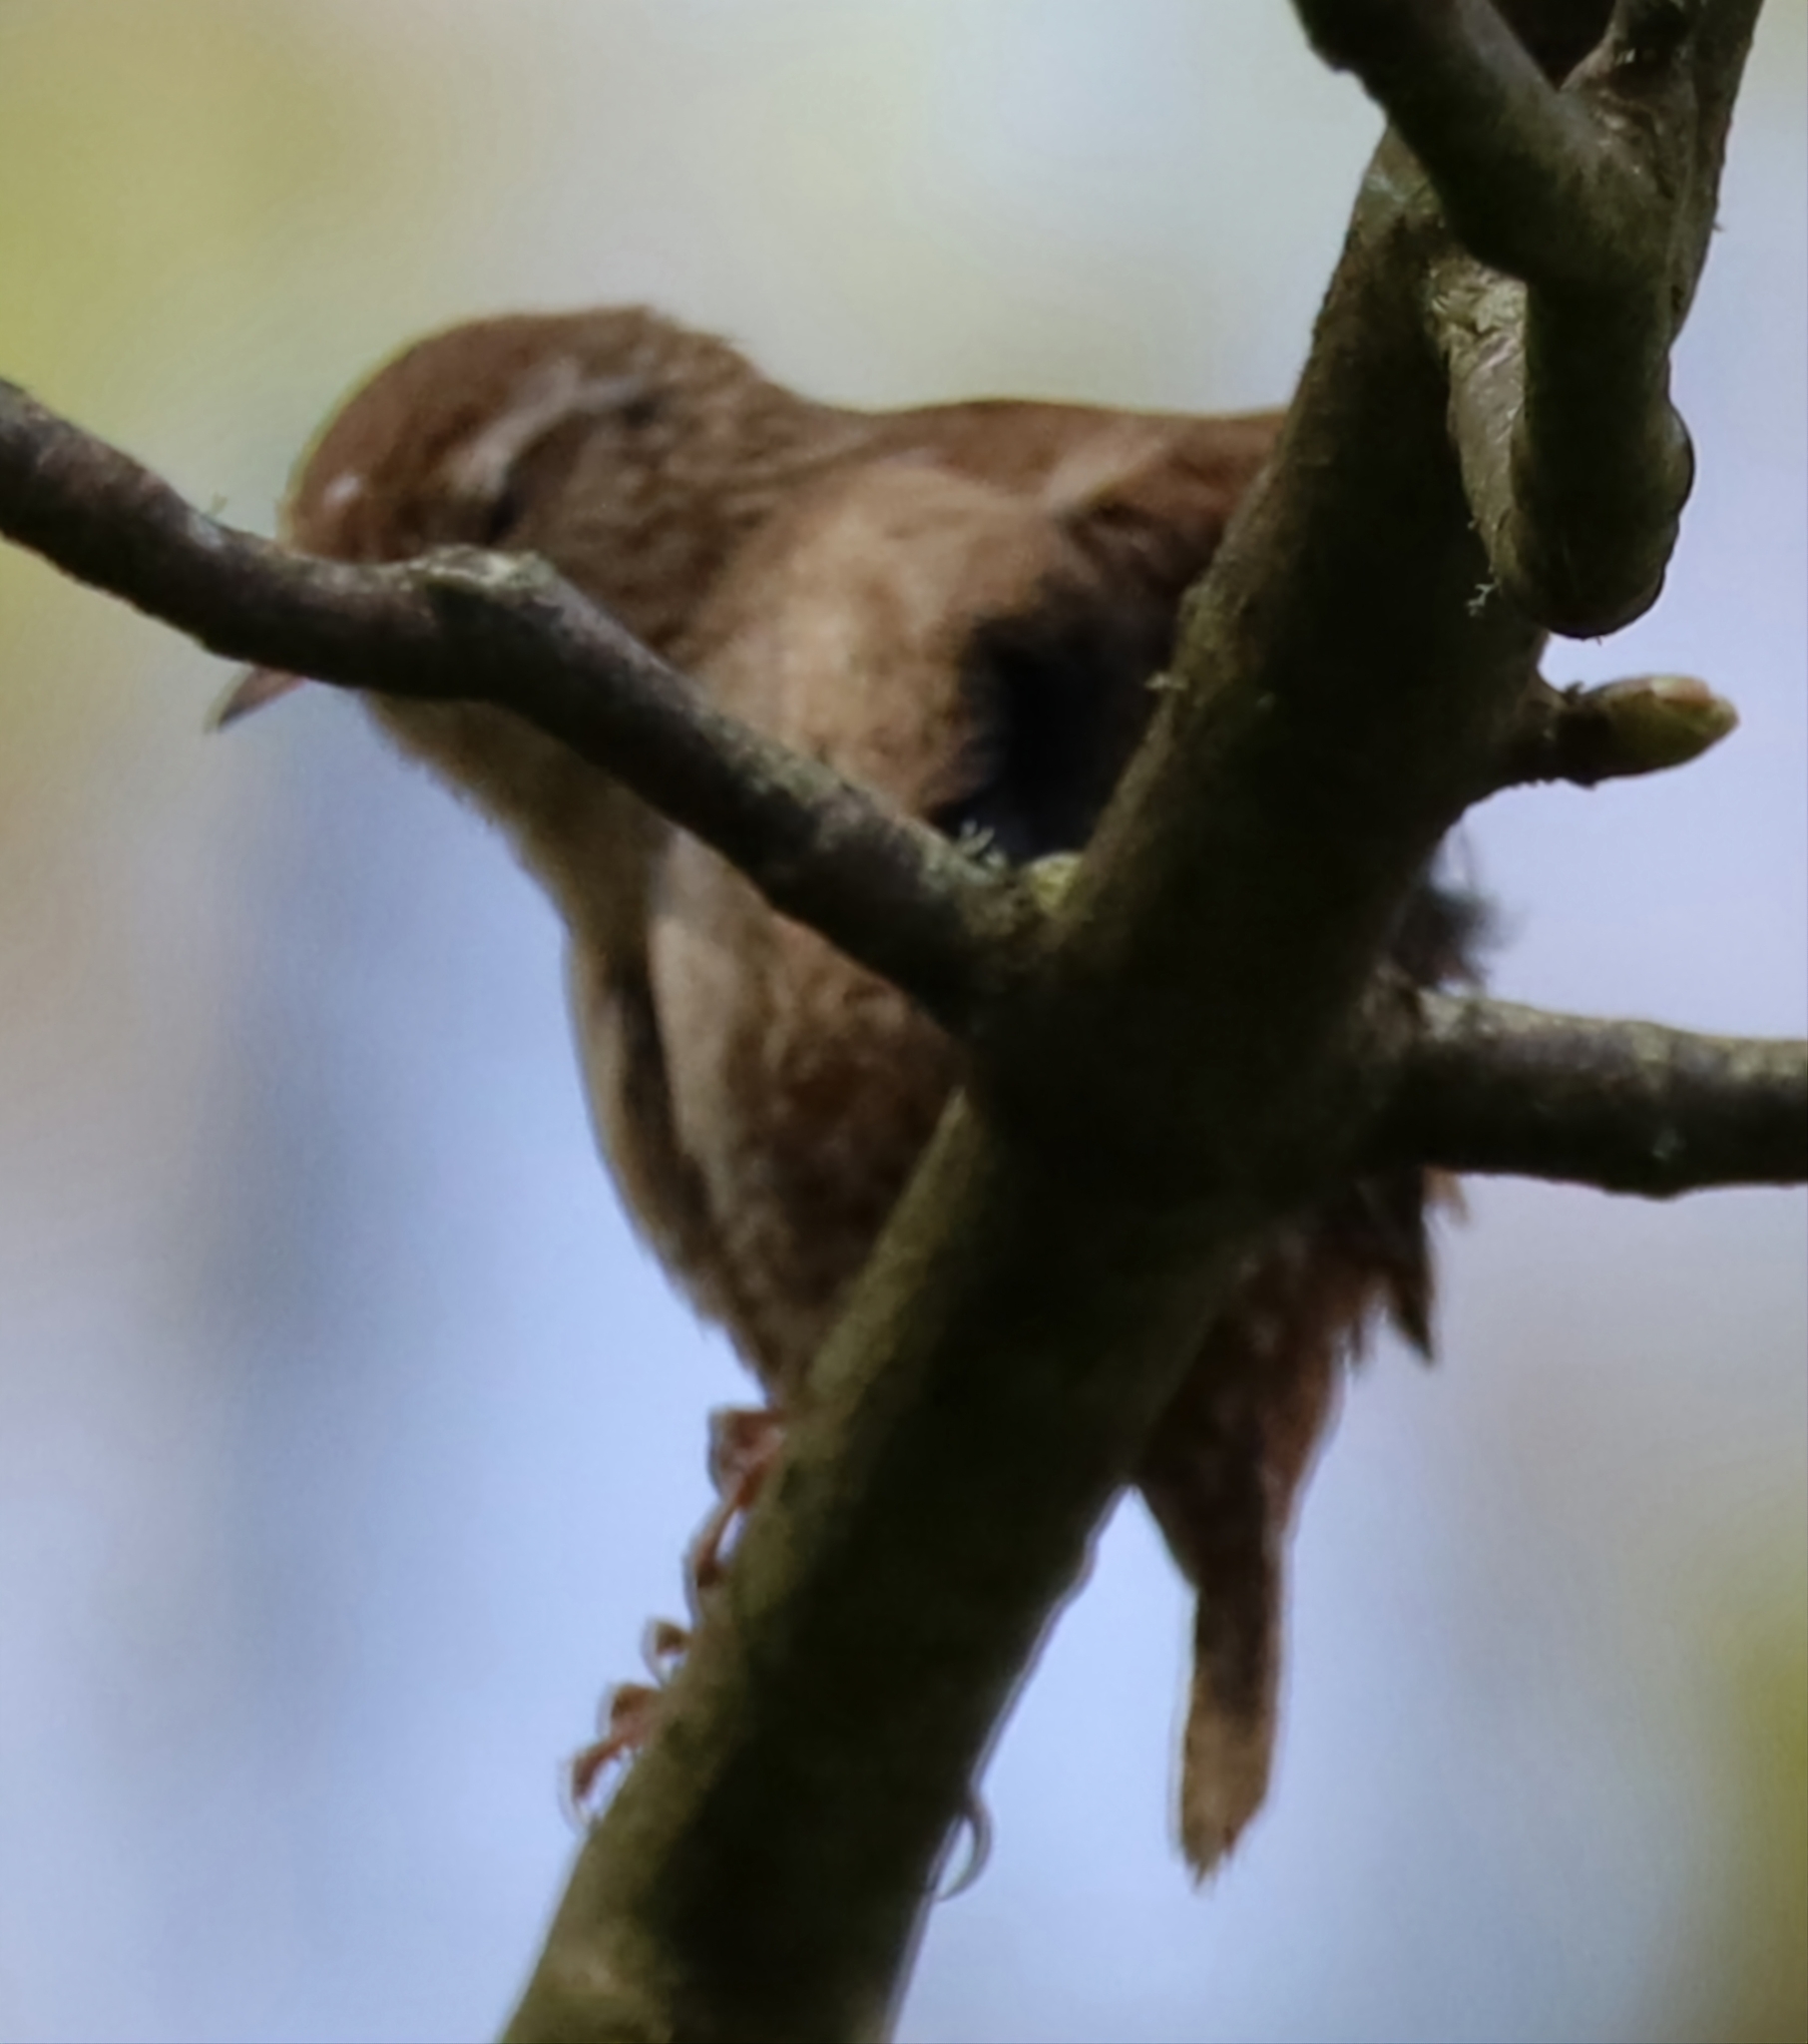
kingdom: Animalia
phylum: Chordata
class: Aves
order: Passeriformes
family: Troglodytidae
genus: Troglodytes
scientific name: Troglodytes troglodytes
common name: Eurasian wren
